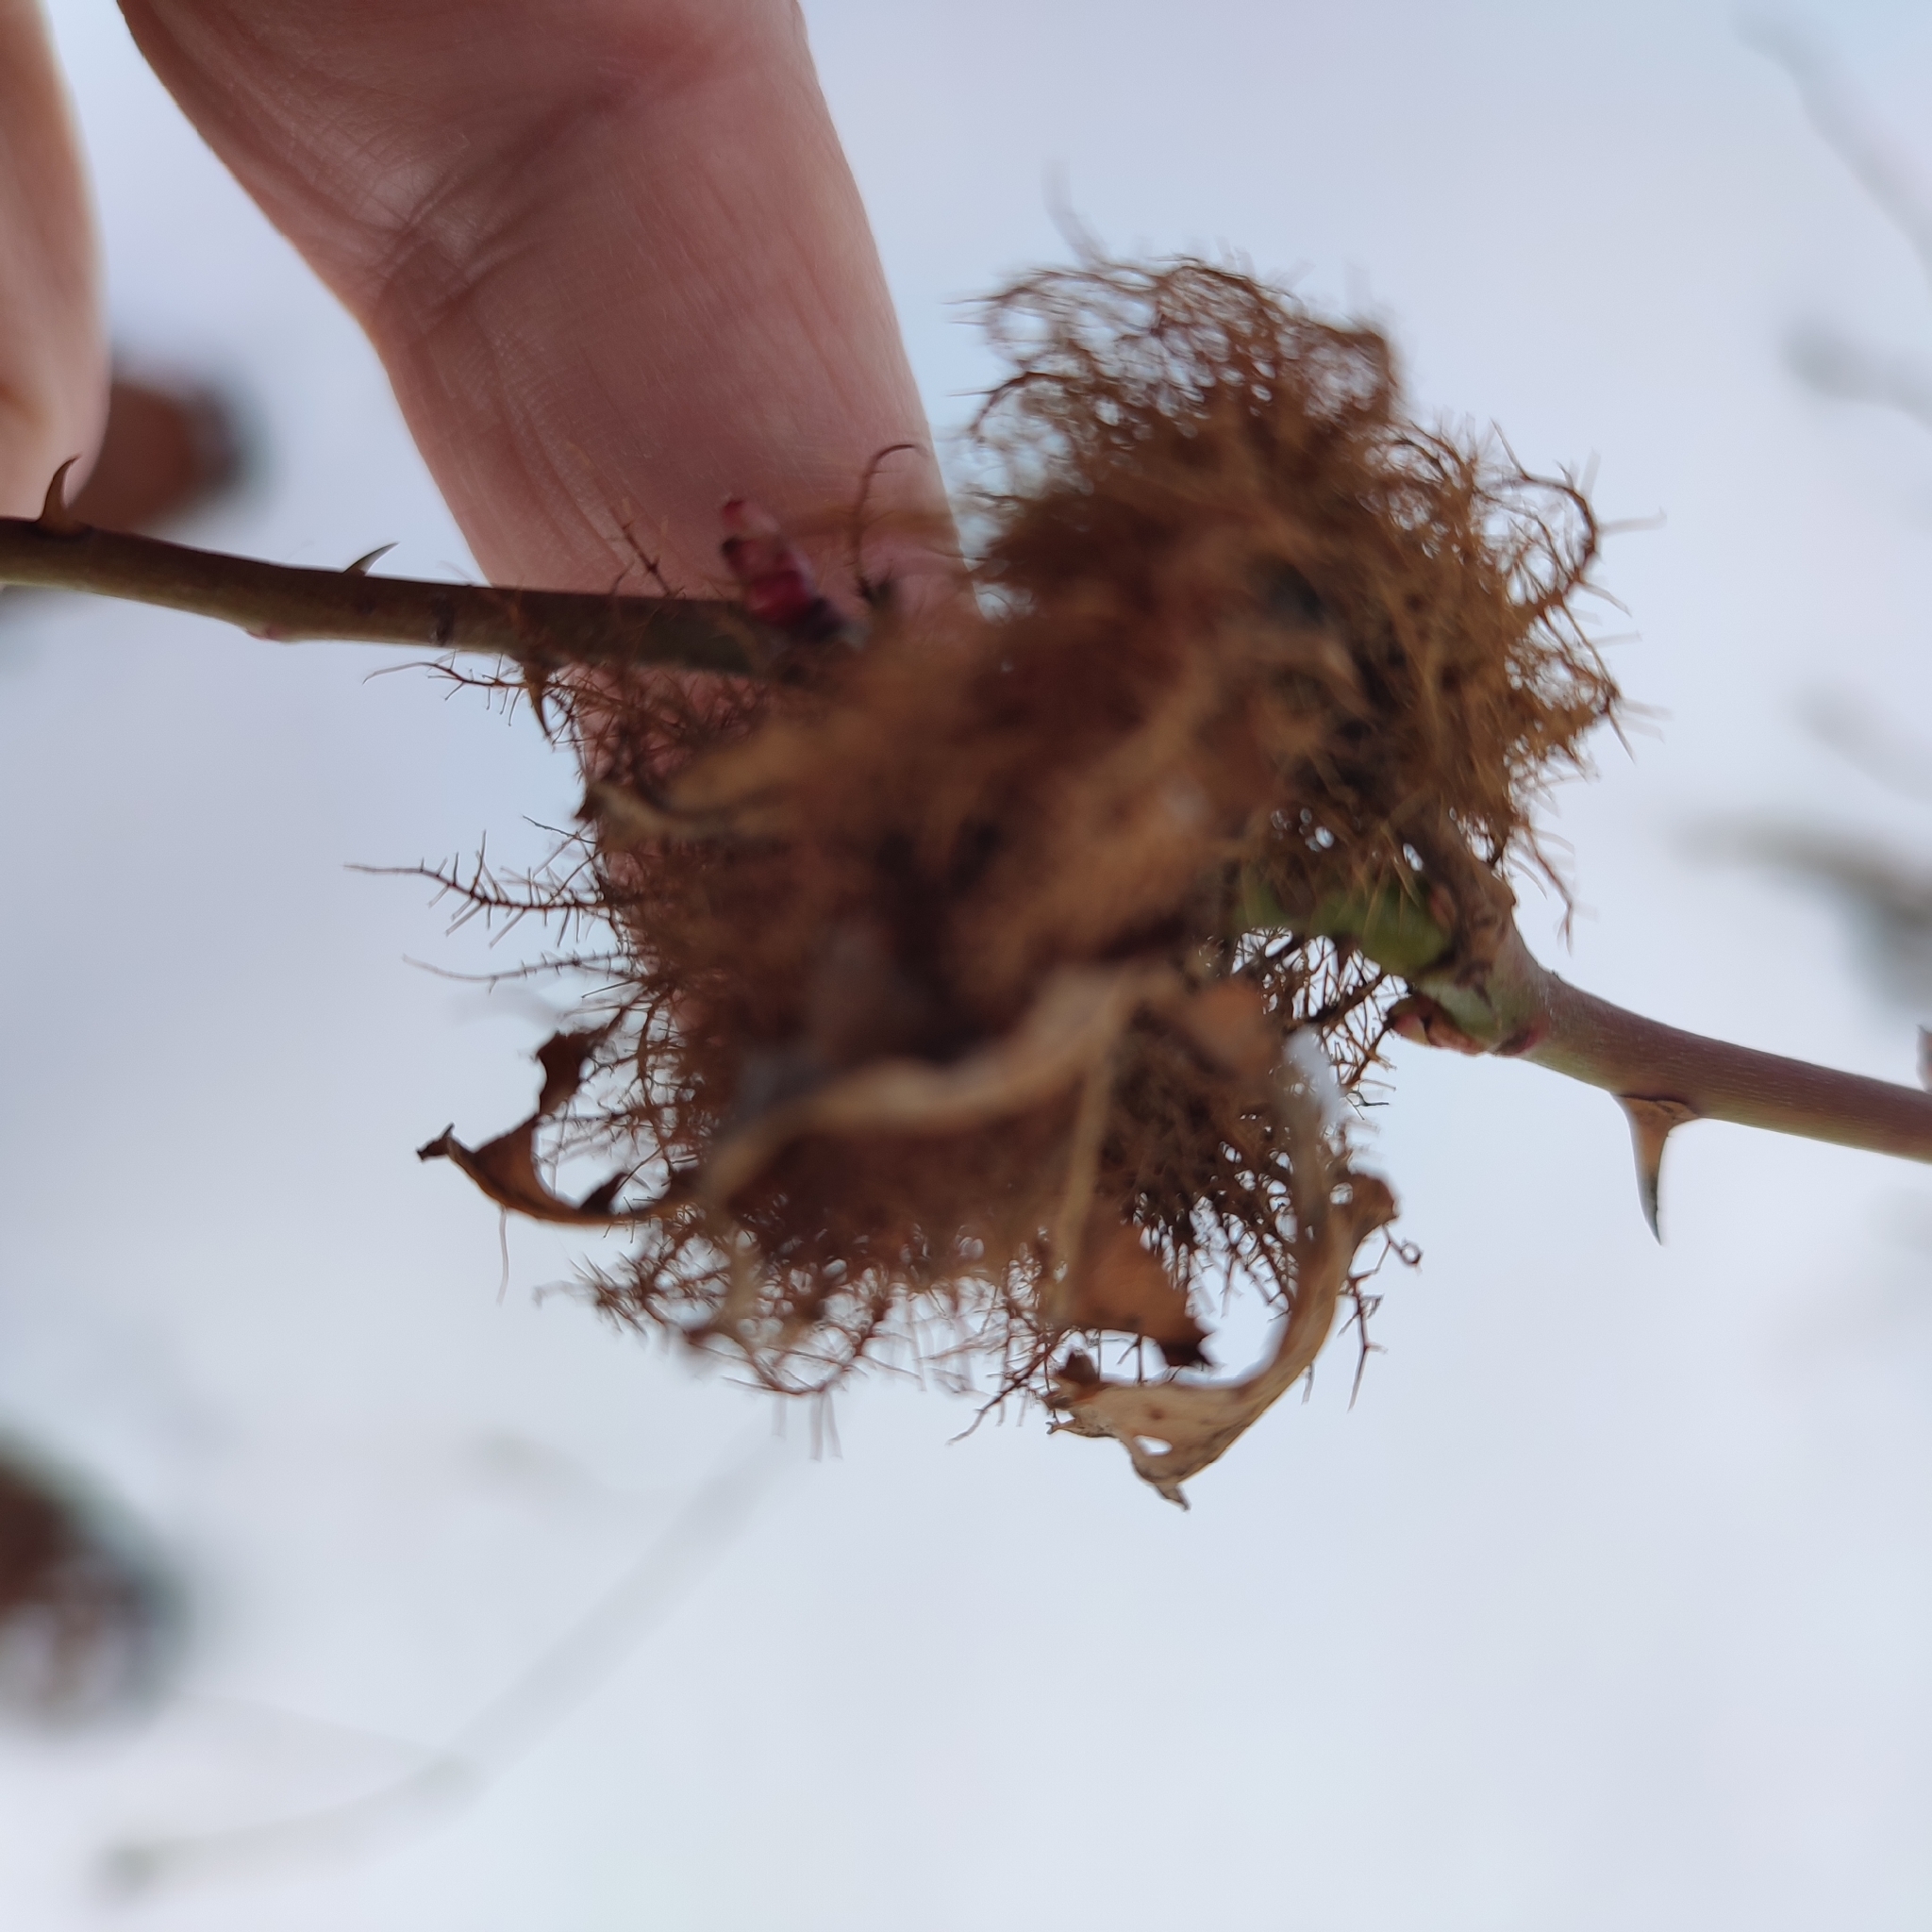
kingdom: Animalia
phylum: Arthropoda
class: Insecta
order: Hymenoptera
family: Cynipidae
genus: Diplolepis
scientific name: Diplolepis rosae
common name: Bedeguar gall
